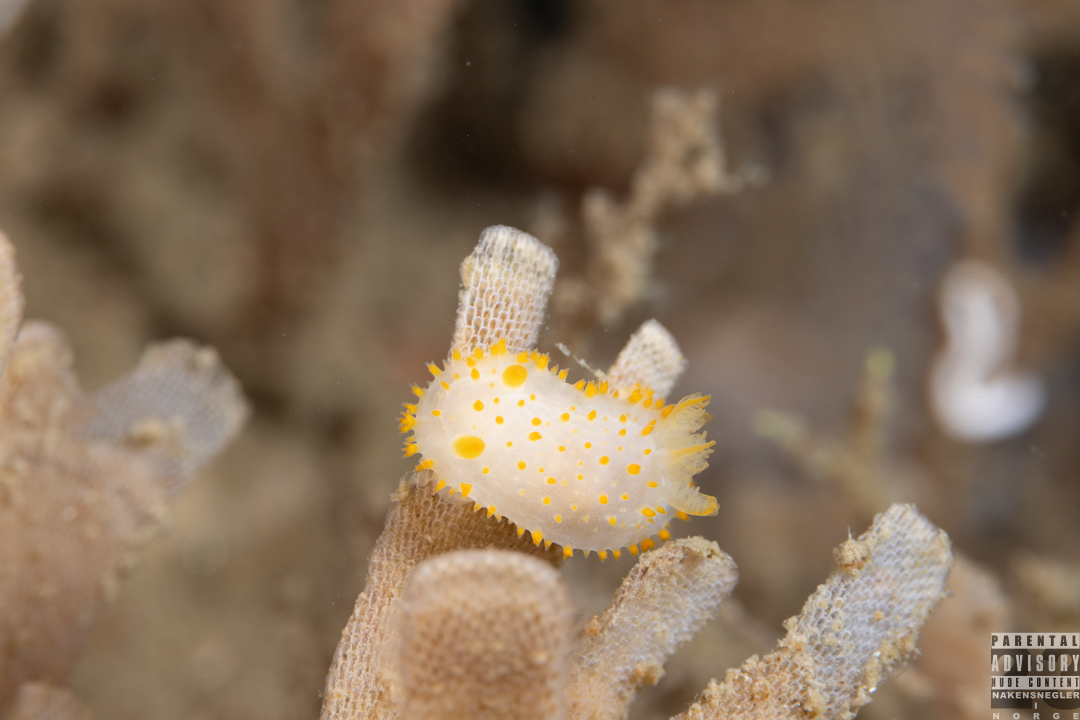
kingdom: Animalia
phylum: Mollusca
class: Gastropoda
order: Nudibranchia
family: Polyceridae
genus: Crimora
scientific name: Crimora papillata
